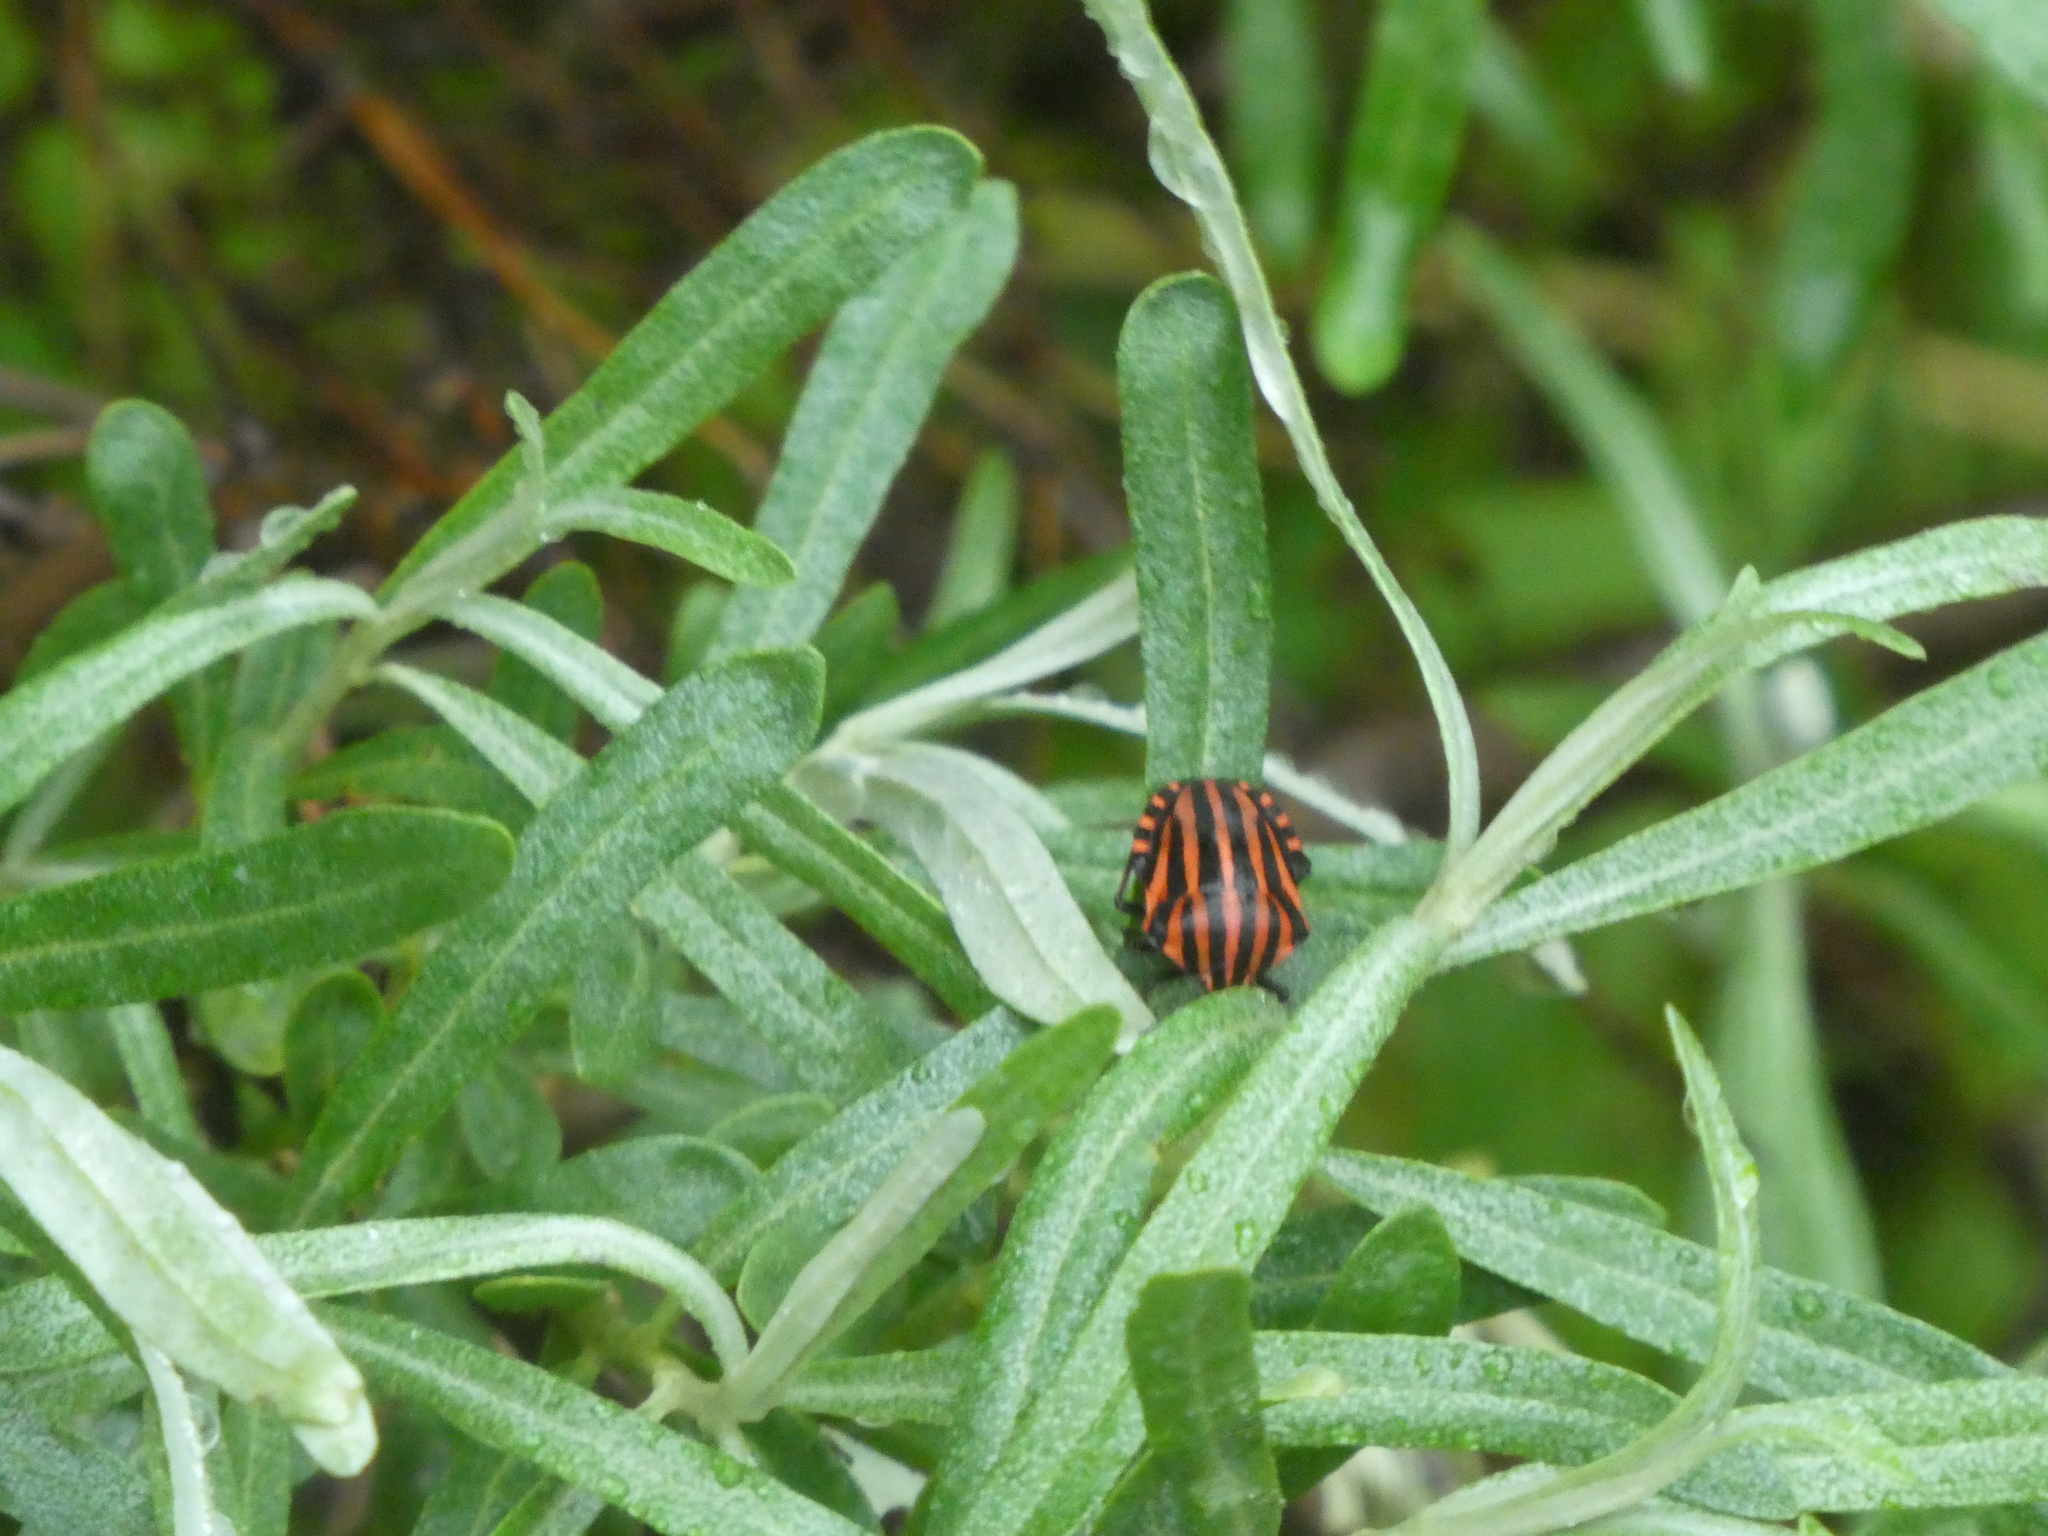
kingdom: Animalia
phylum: Arthropoda
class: Insecta
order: Hemiptera
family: Pentatomidae
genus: Graphosoma
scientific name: Graphosoma italicum
